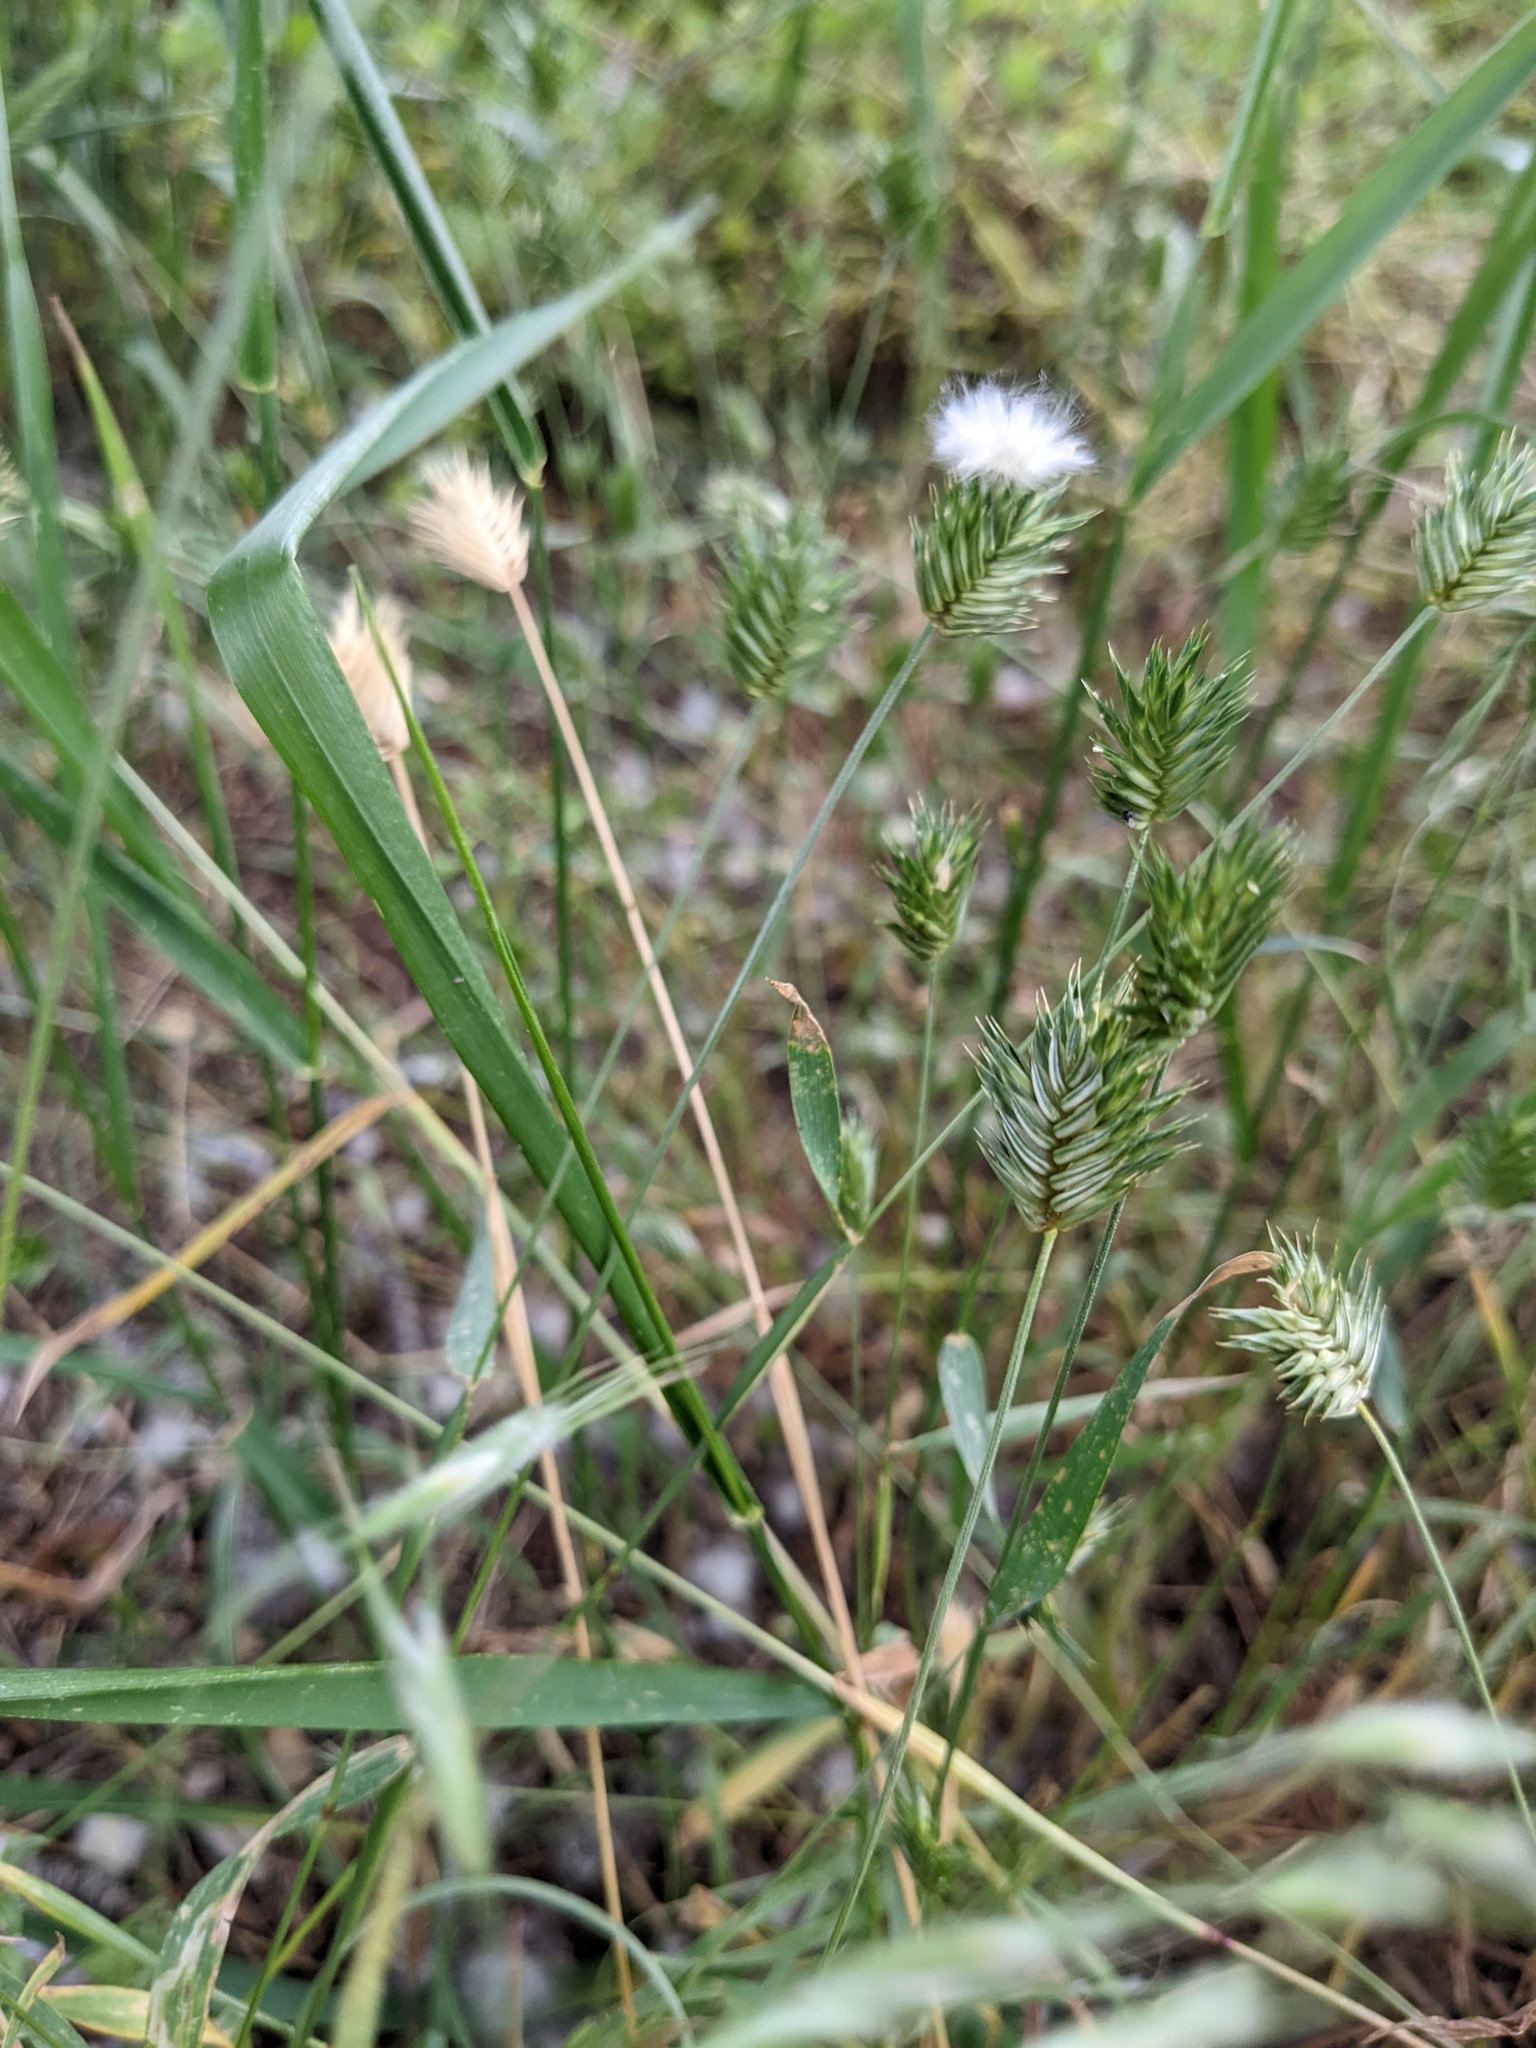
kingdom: Plantae
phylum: Tracheophyta
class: Liliopsida
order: Poales
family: Poaceae
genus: Eremopyrum
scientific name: Eremopyrum triticeum
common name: Annual wheatgrass
